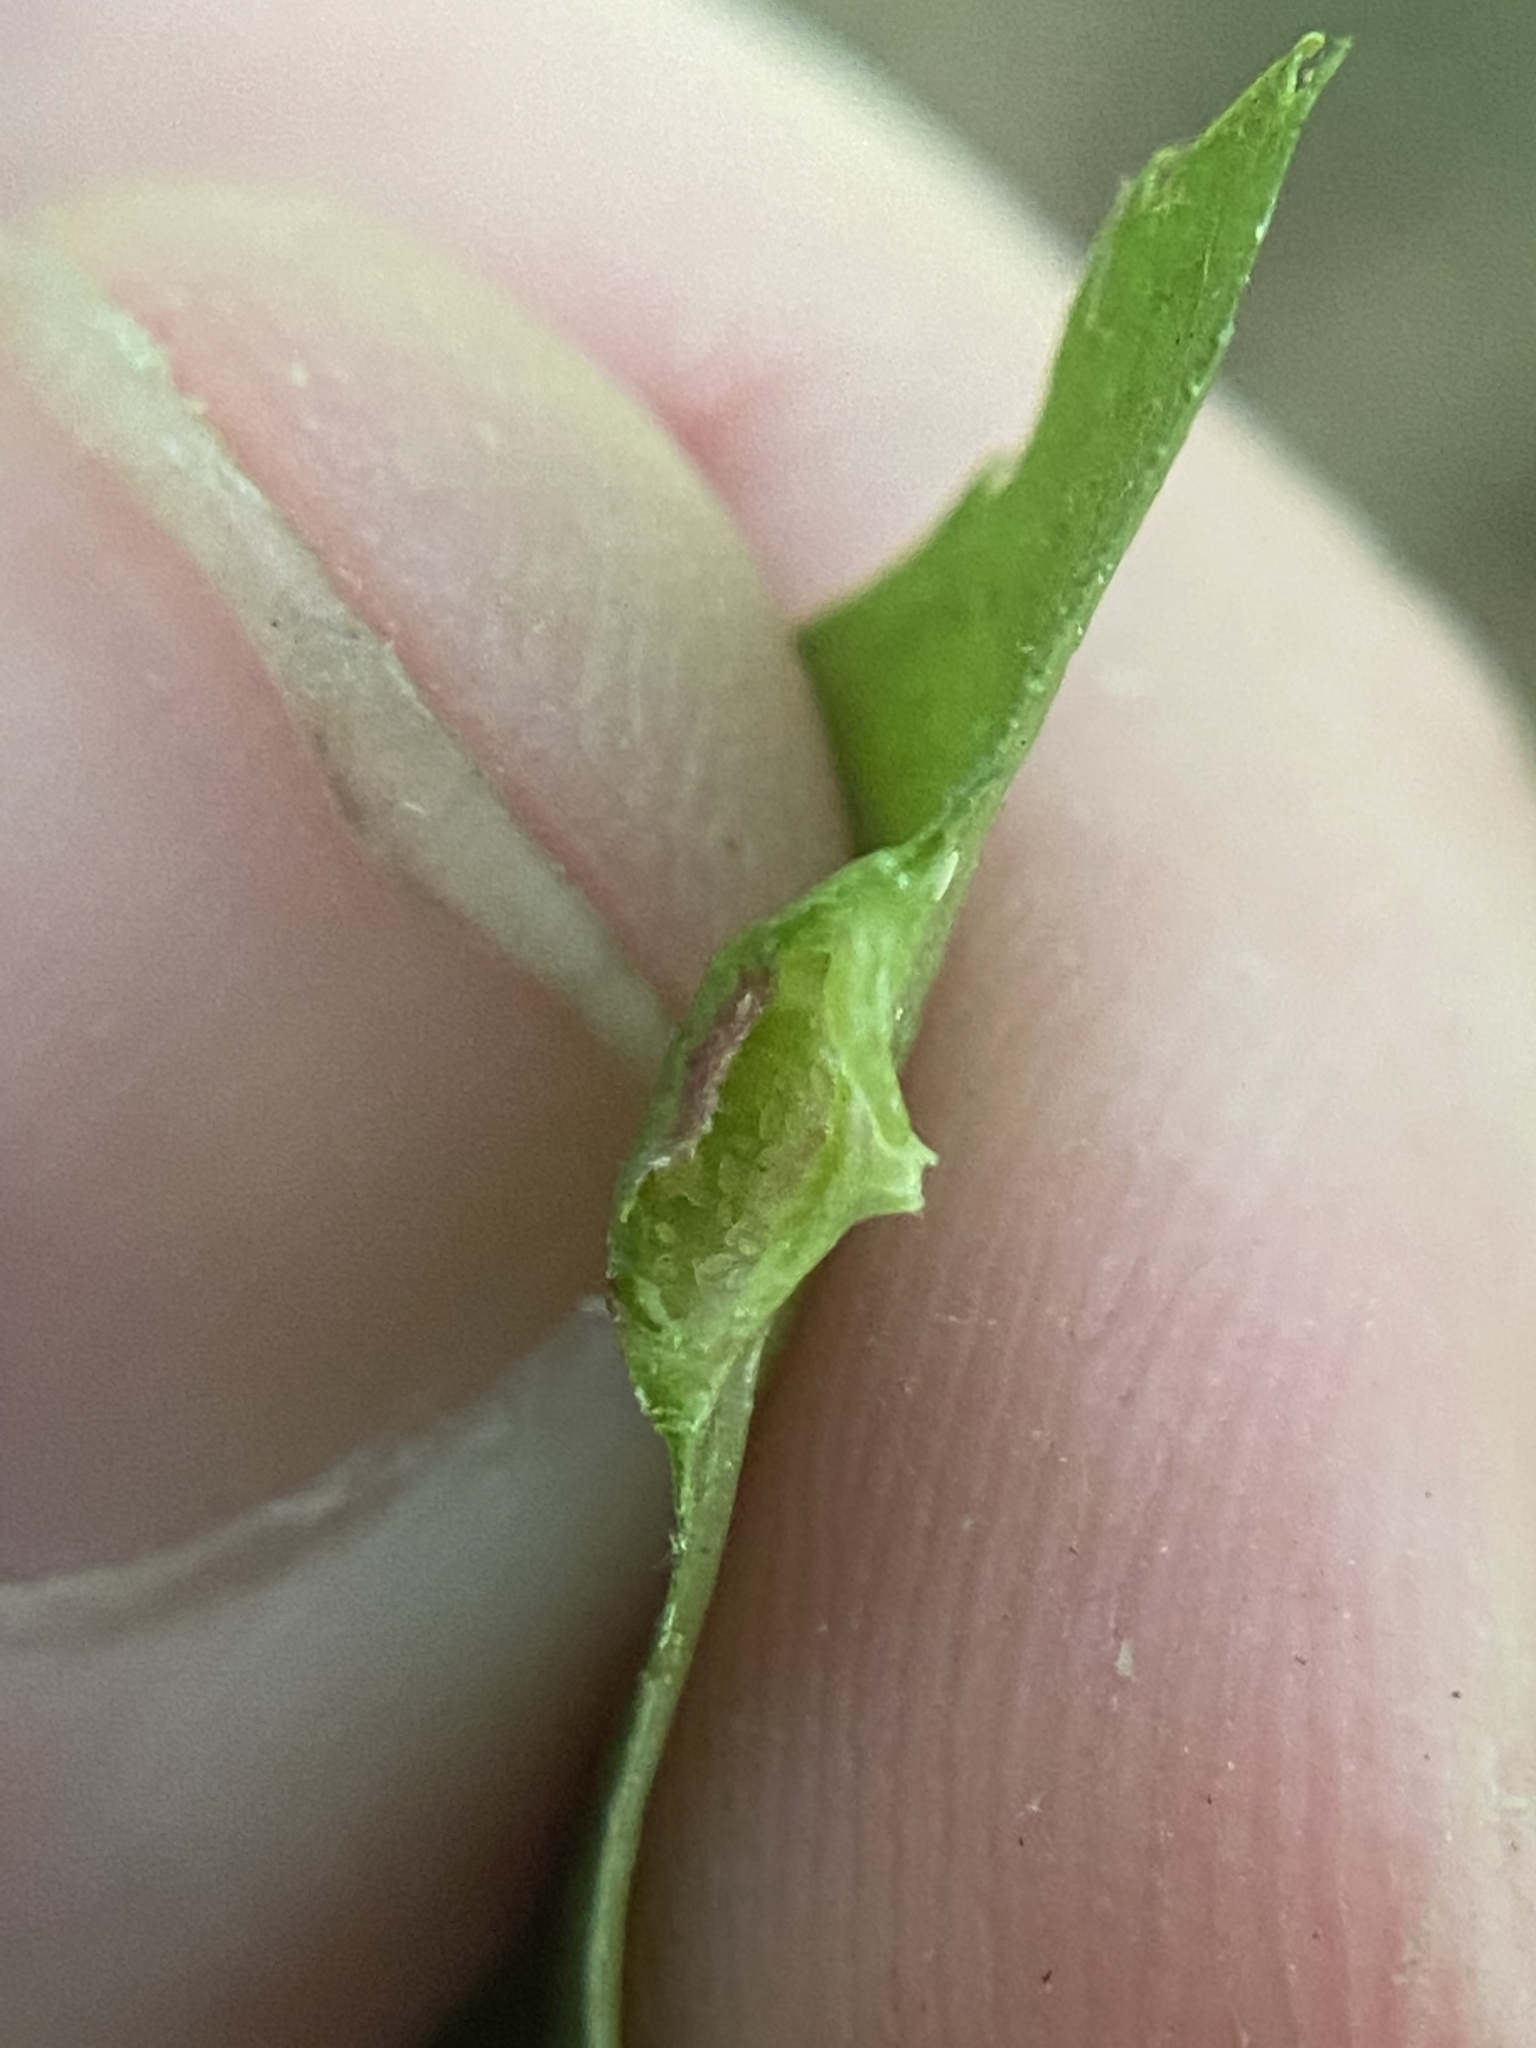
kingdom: Animalia
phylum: Arthropoda
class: Insecta
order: Hemiptera
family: Phylloxeridae
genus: Phylloxera
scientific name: Phylloxera foveola
